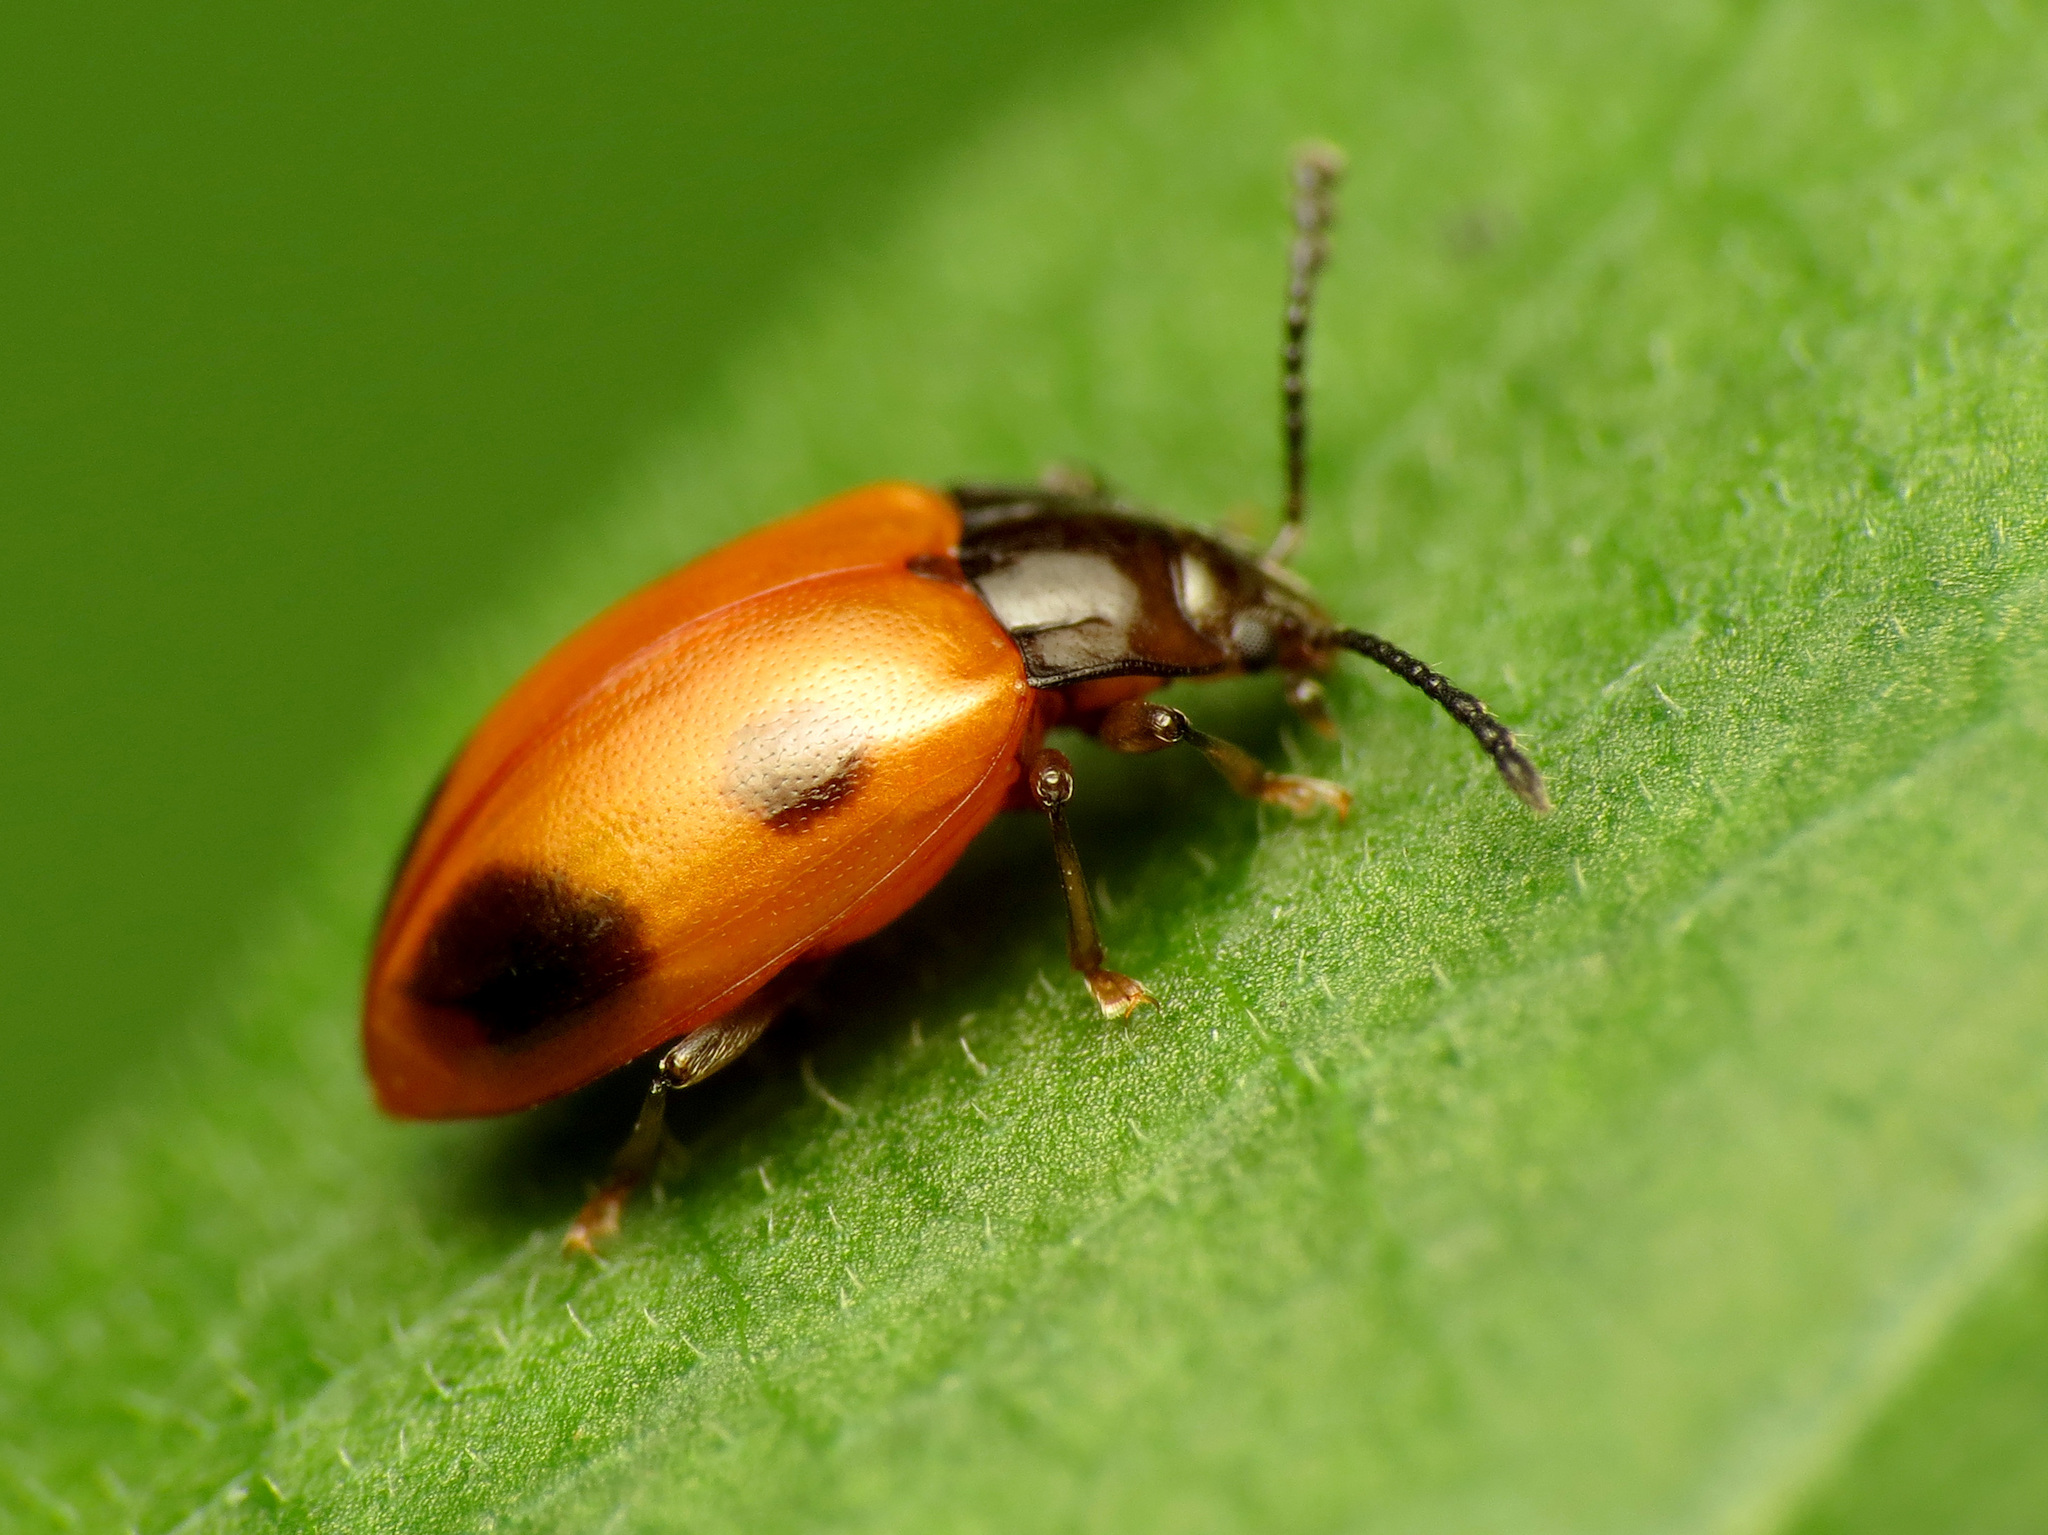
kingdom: Animalia
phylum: Arthropoda
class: Insecta
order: Coleoptera
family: Endomychidae
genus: Endomychus
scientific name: Endomychus biguttatus
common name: Handsome fungus beetle
